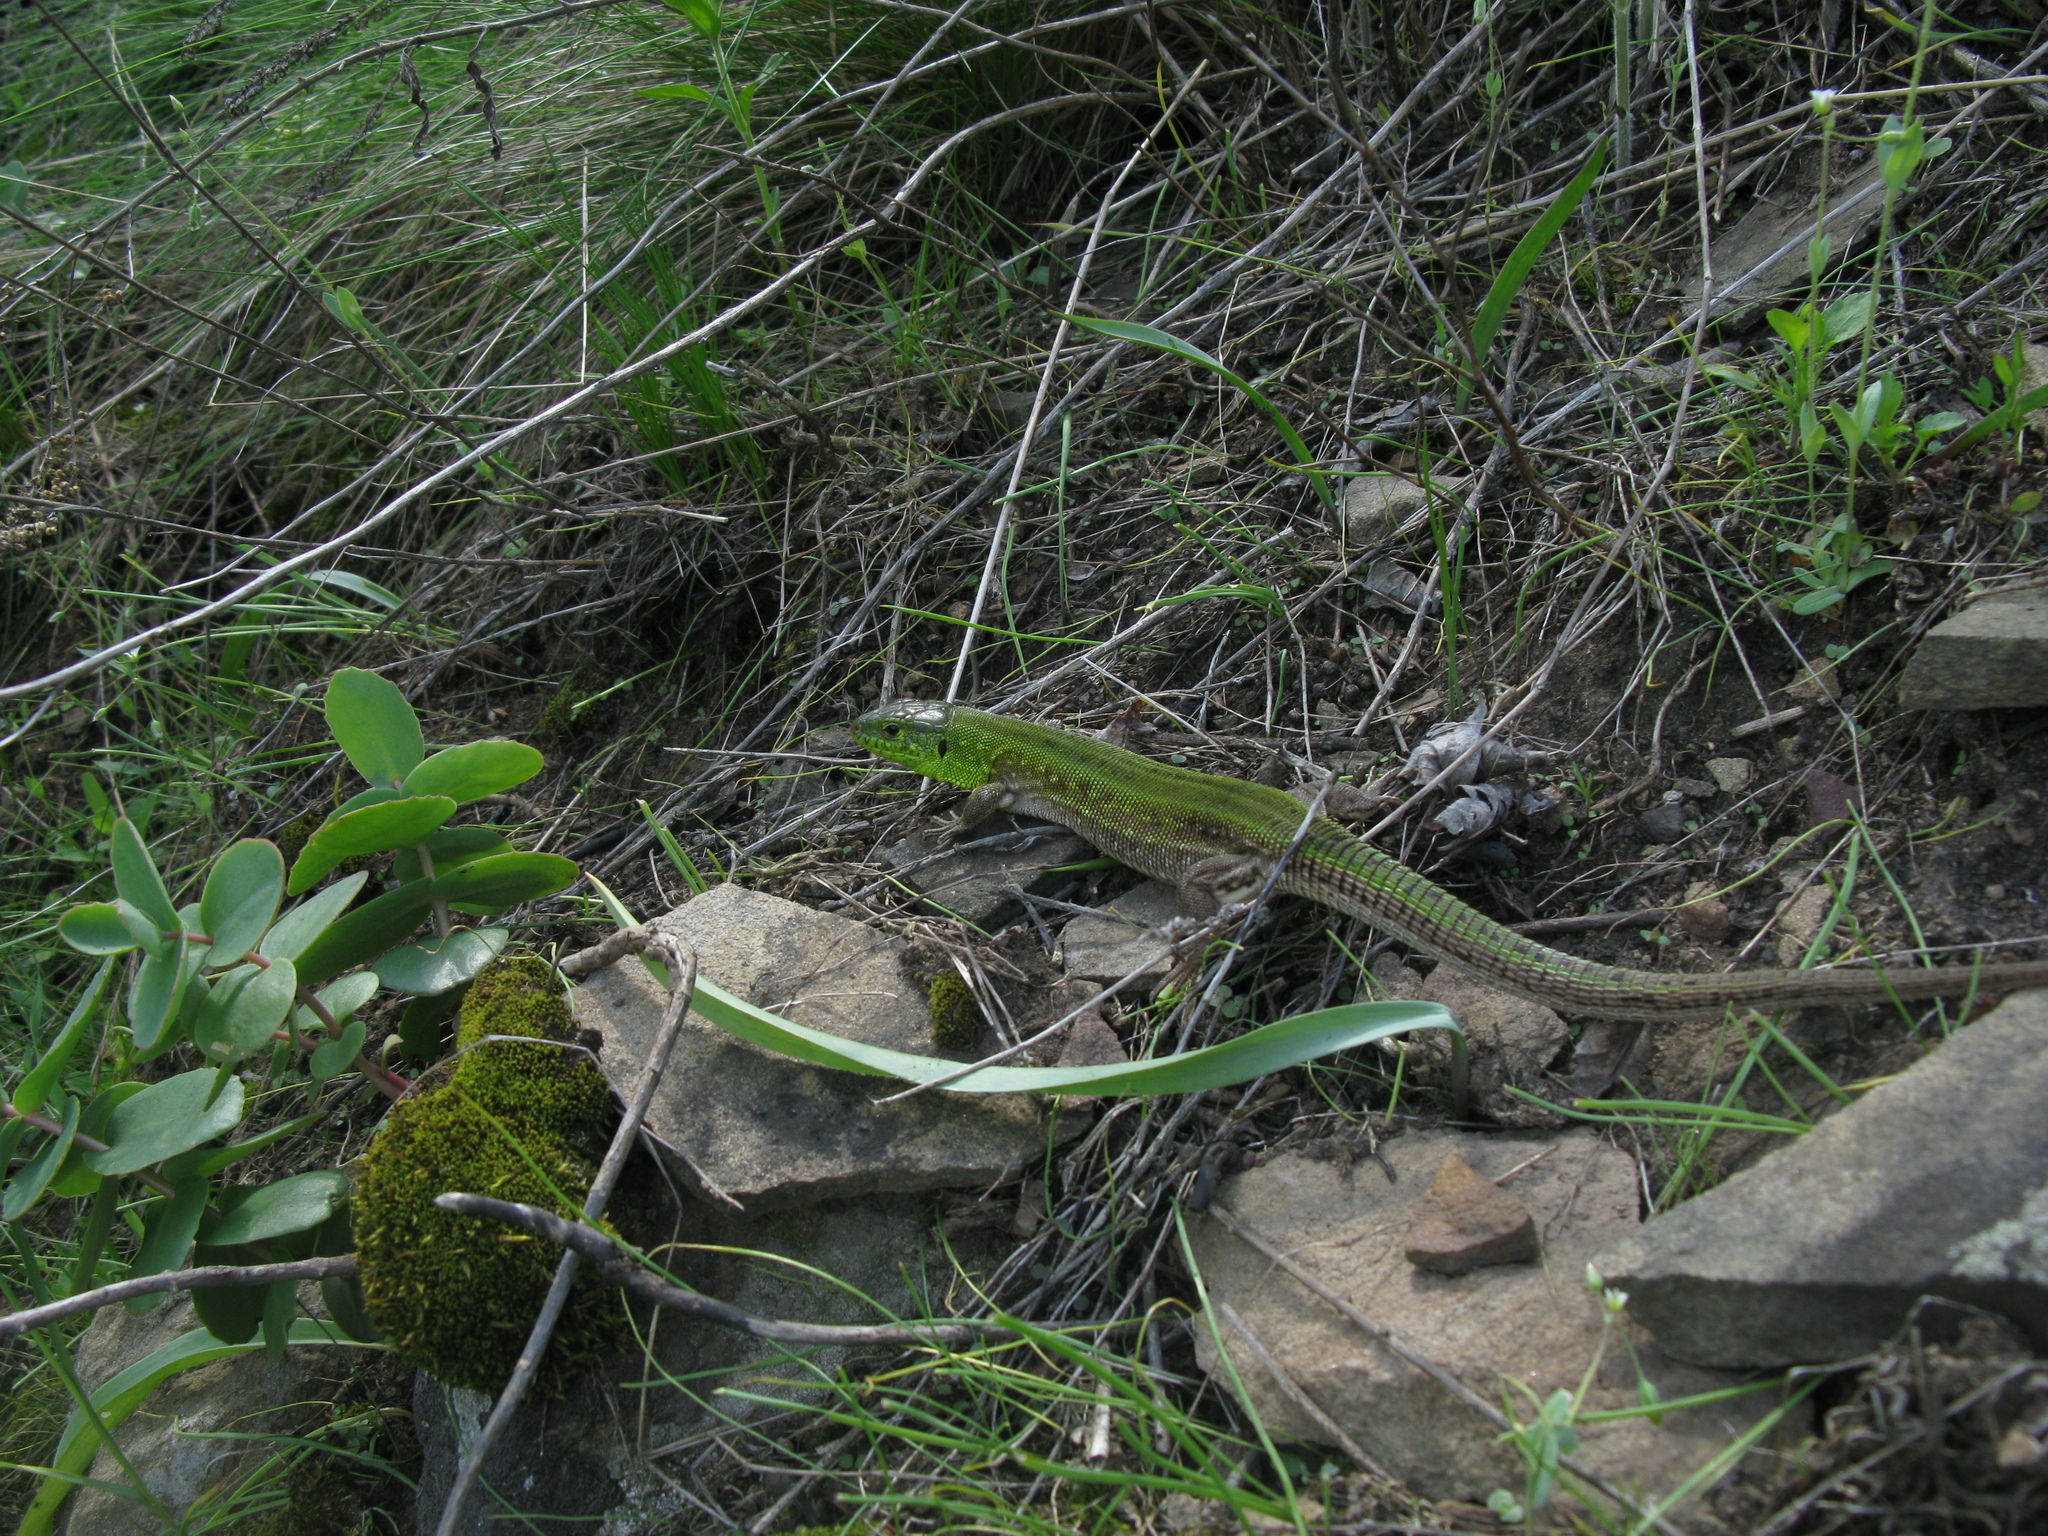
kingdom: Animalia
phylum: Chordata
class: Squamata
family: Lacertidae
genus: Lacerta
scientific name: Lacerta agilis
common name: Sand lizard
